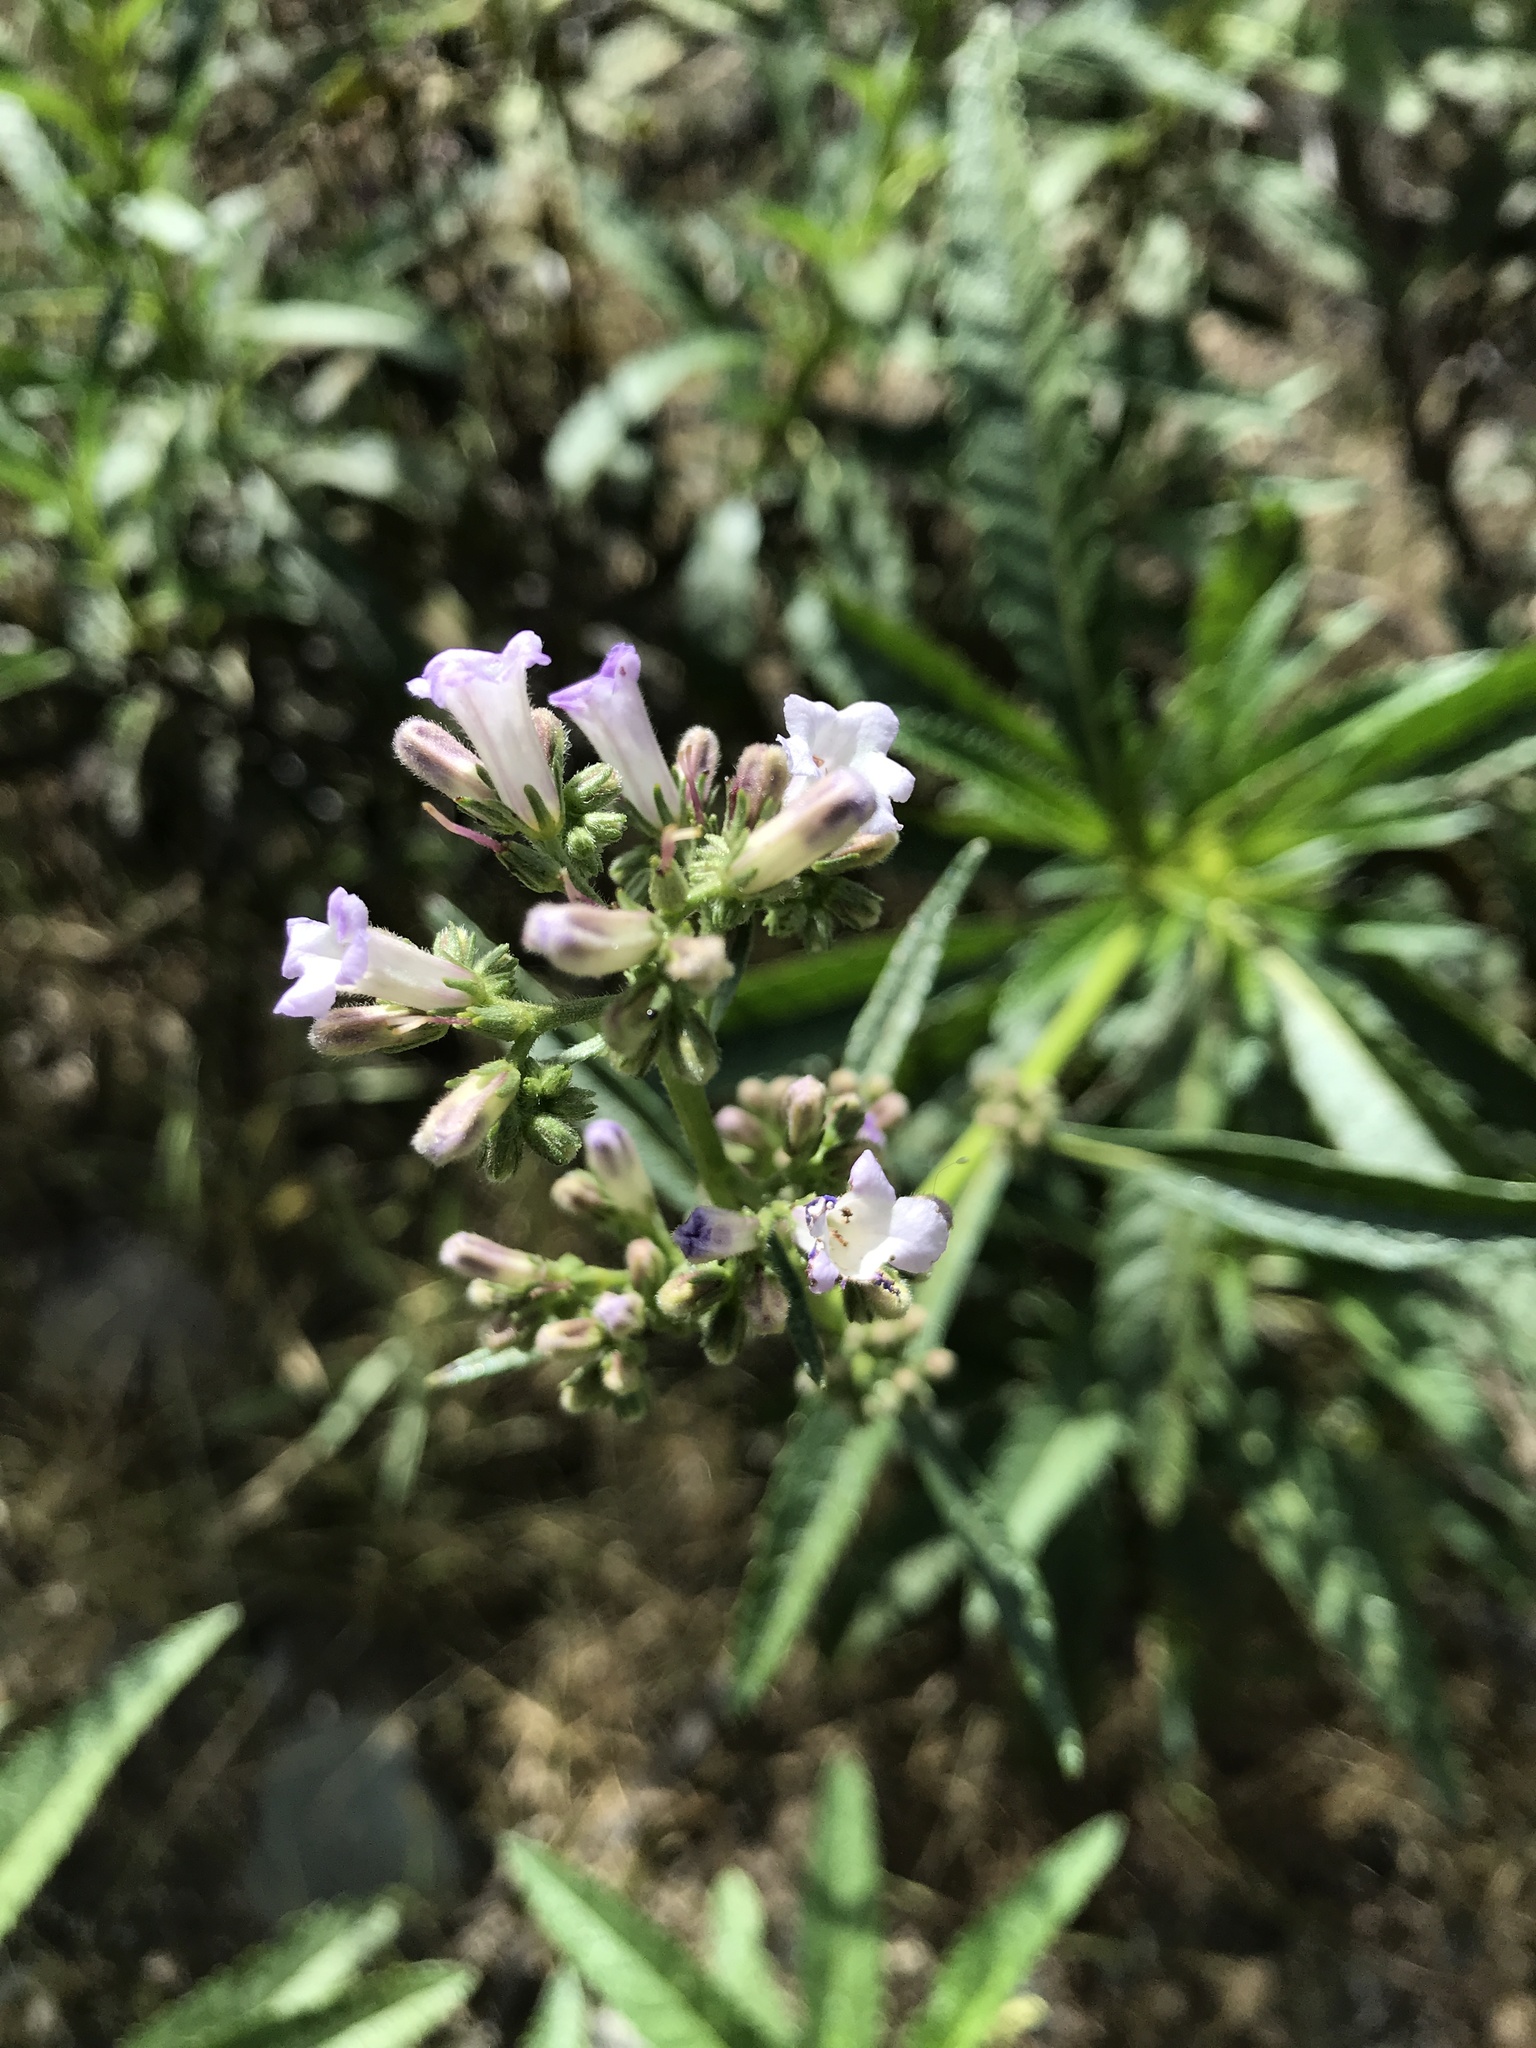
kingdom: Plantae
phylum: Tracheophyta
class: Magnoliopsida
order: Boraginales
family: Namaceae
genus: Eriodictyon
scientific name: Eriodictyon californicum
